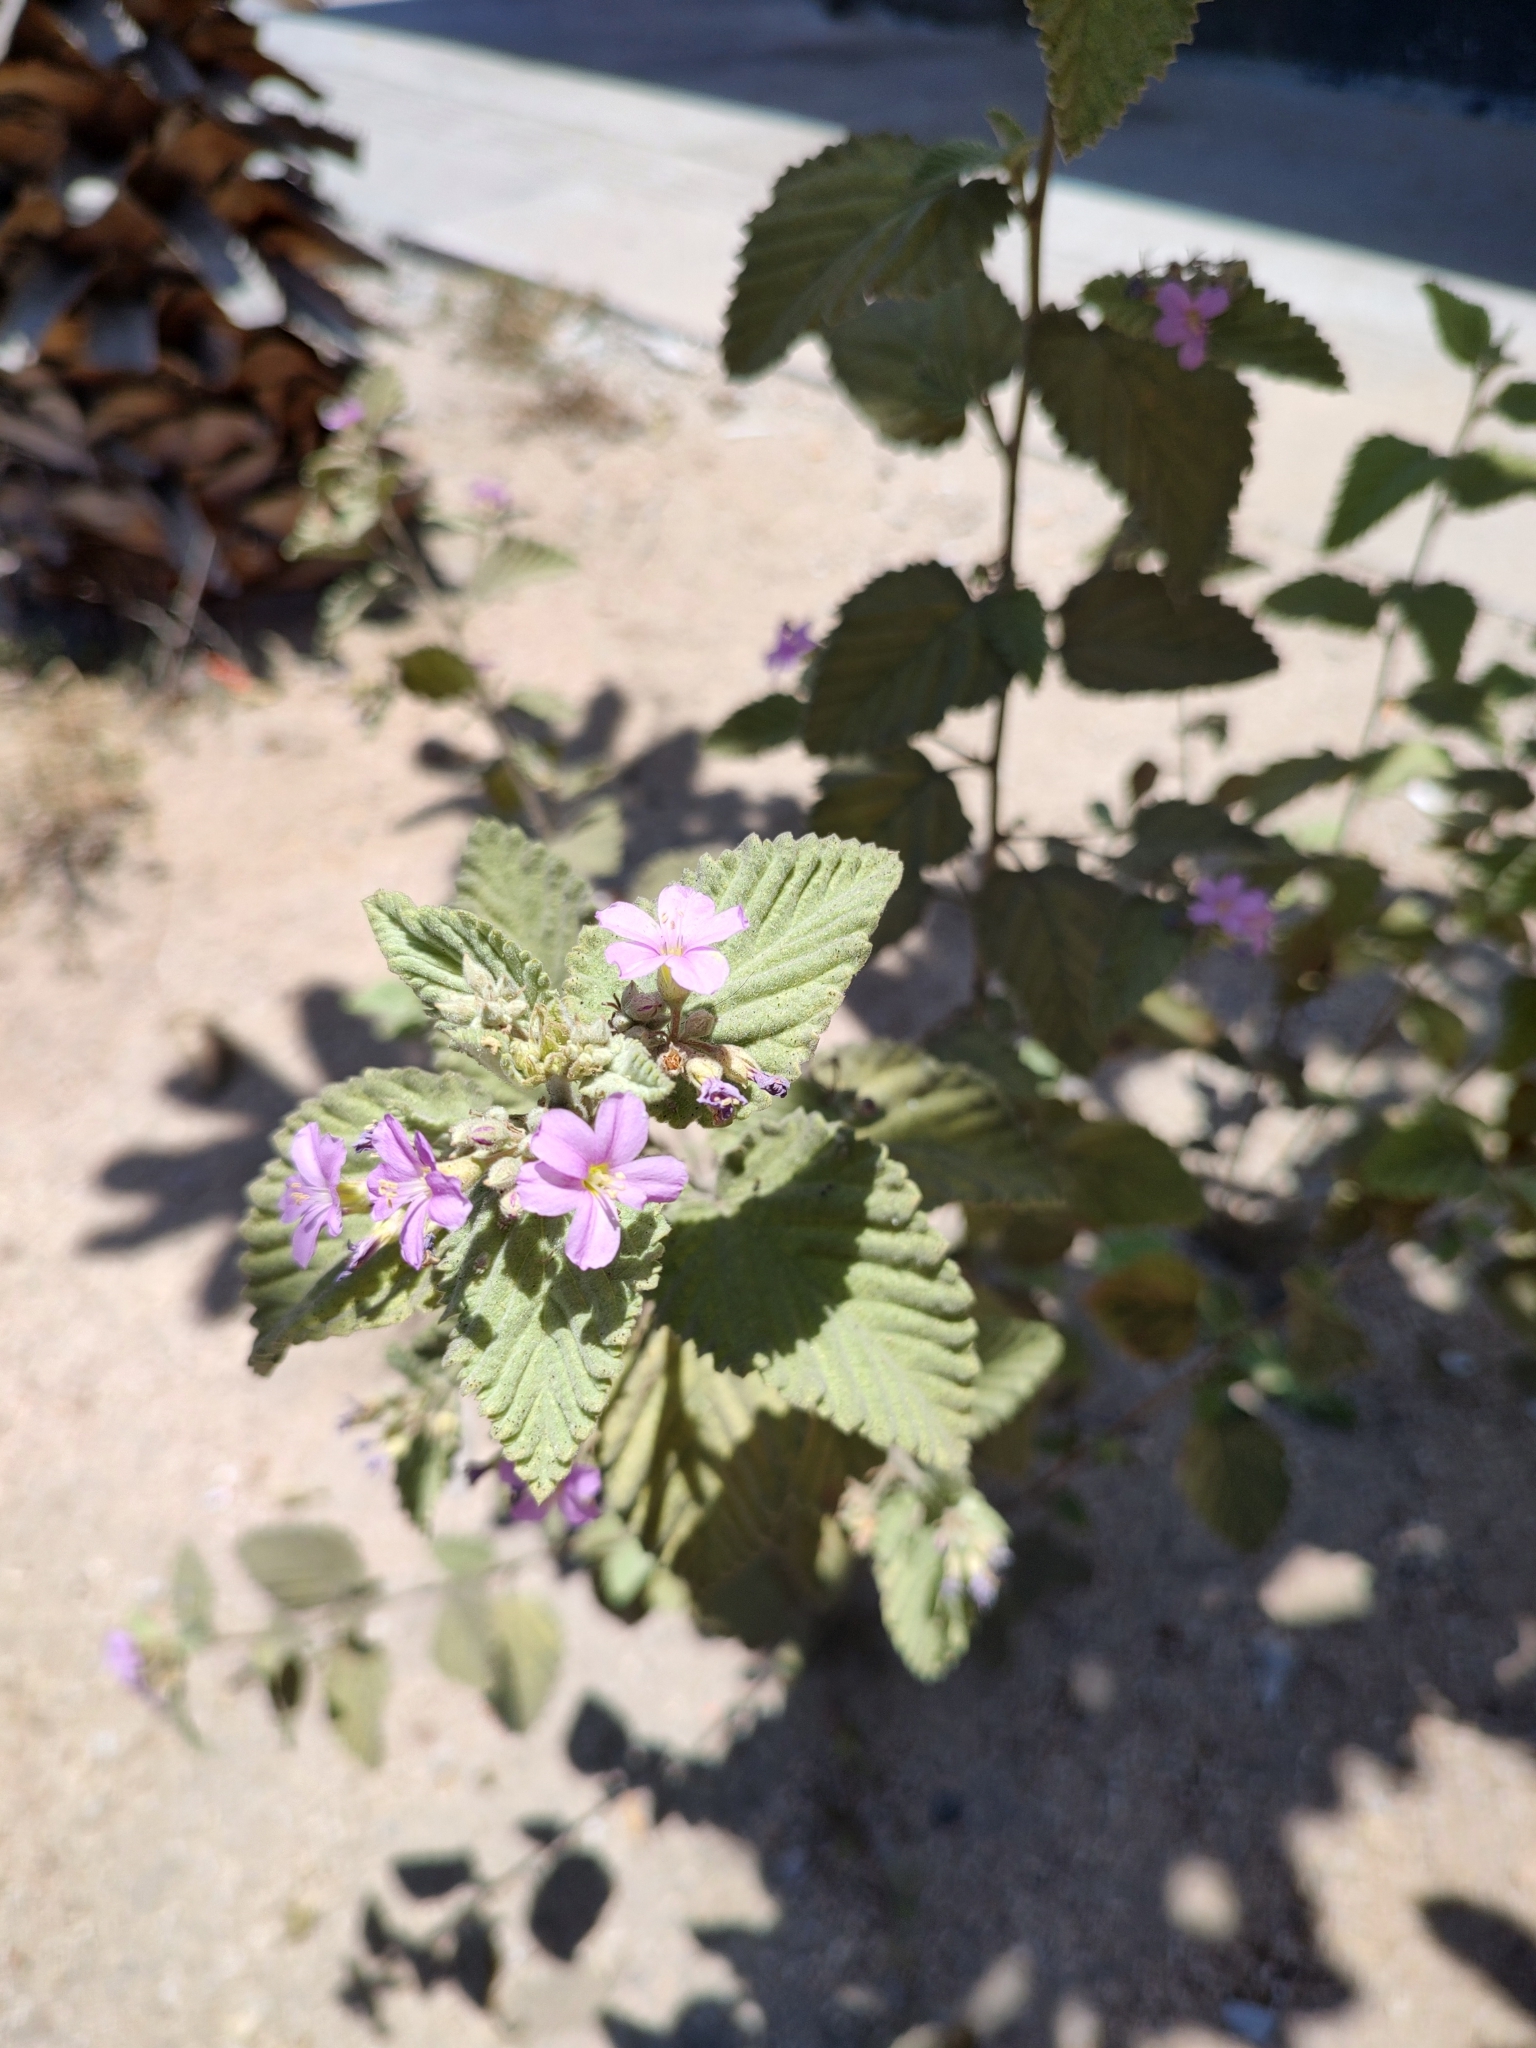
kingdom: Plantae
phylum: Tracheophyta
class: Magnoliopsida
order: Malvales
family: Malvaceae
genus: Melochia
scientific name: Melochia tomentosa
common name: Black torch
